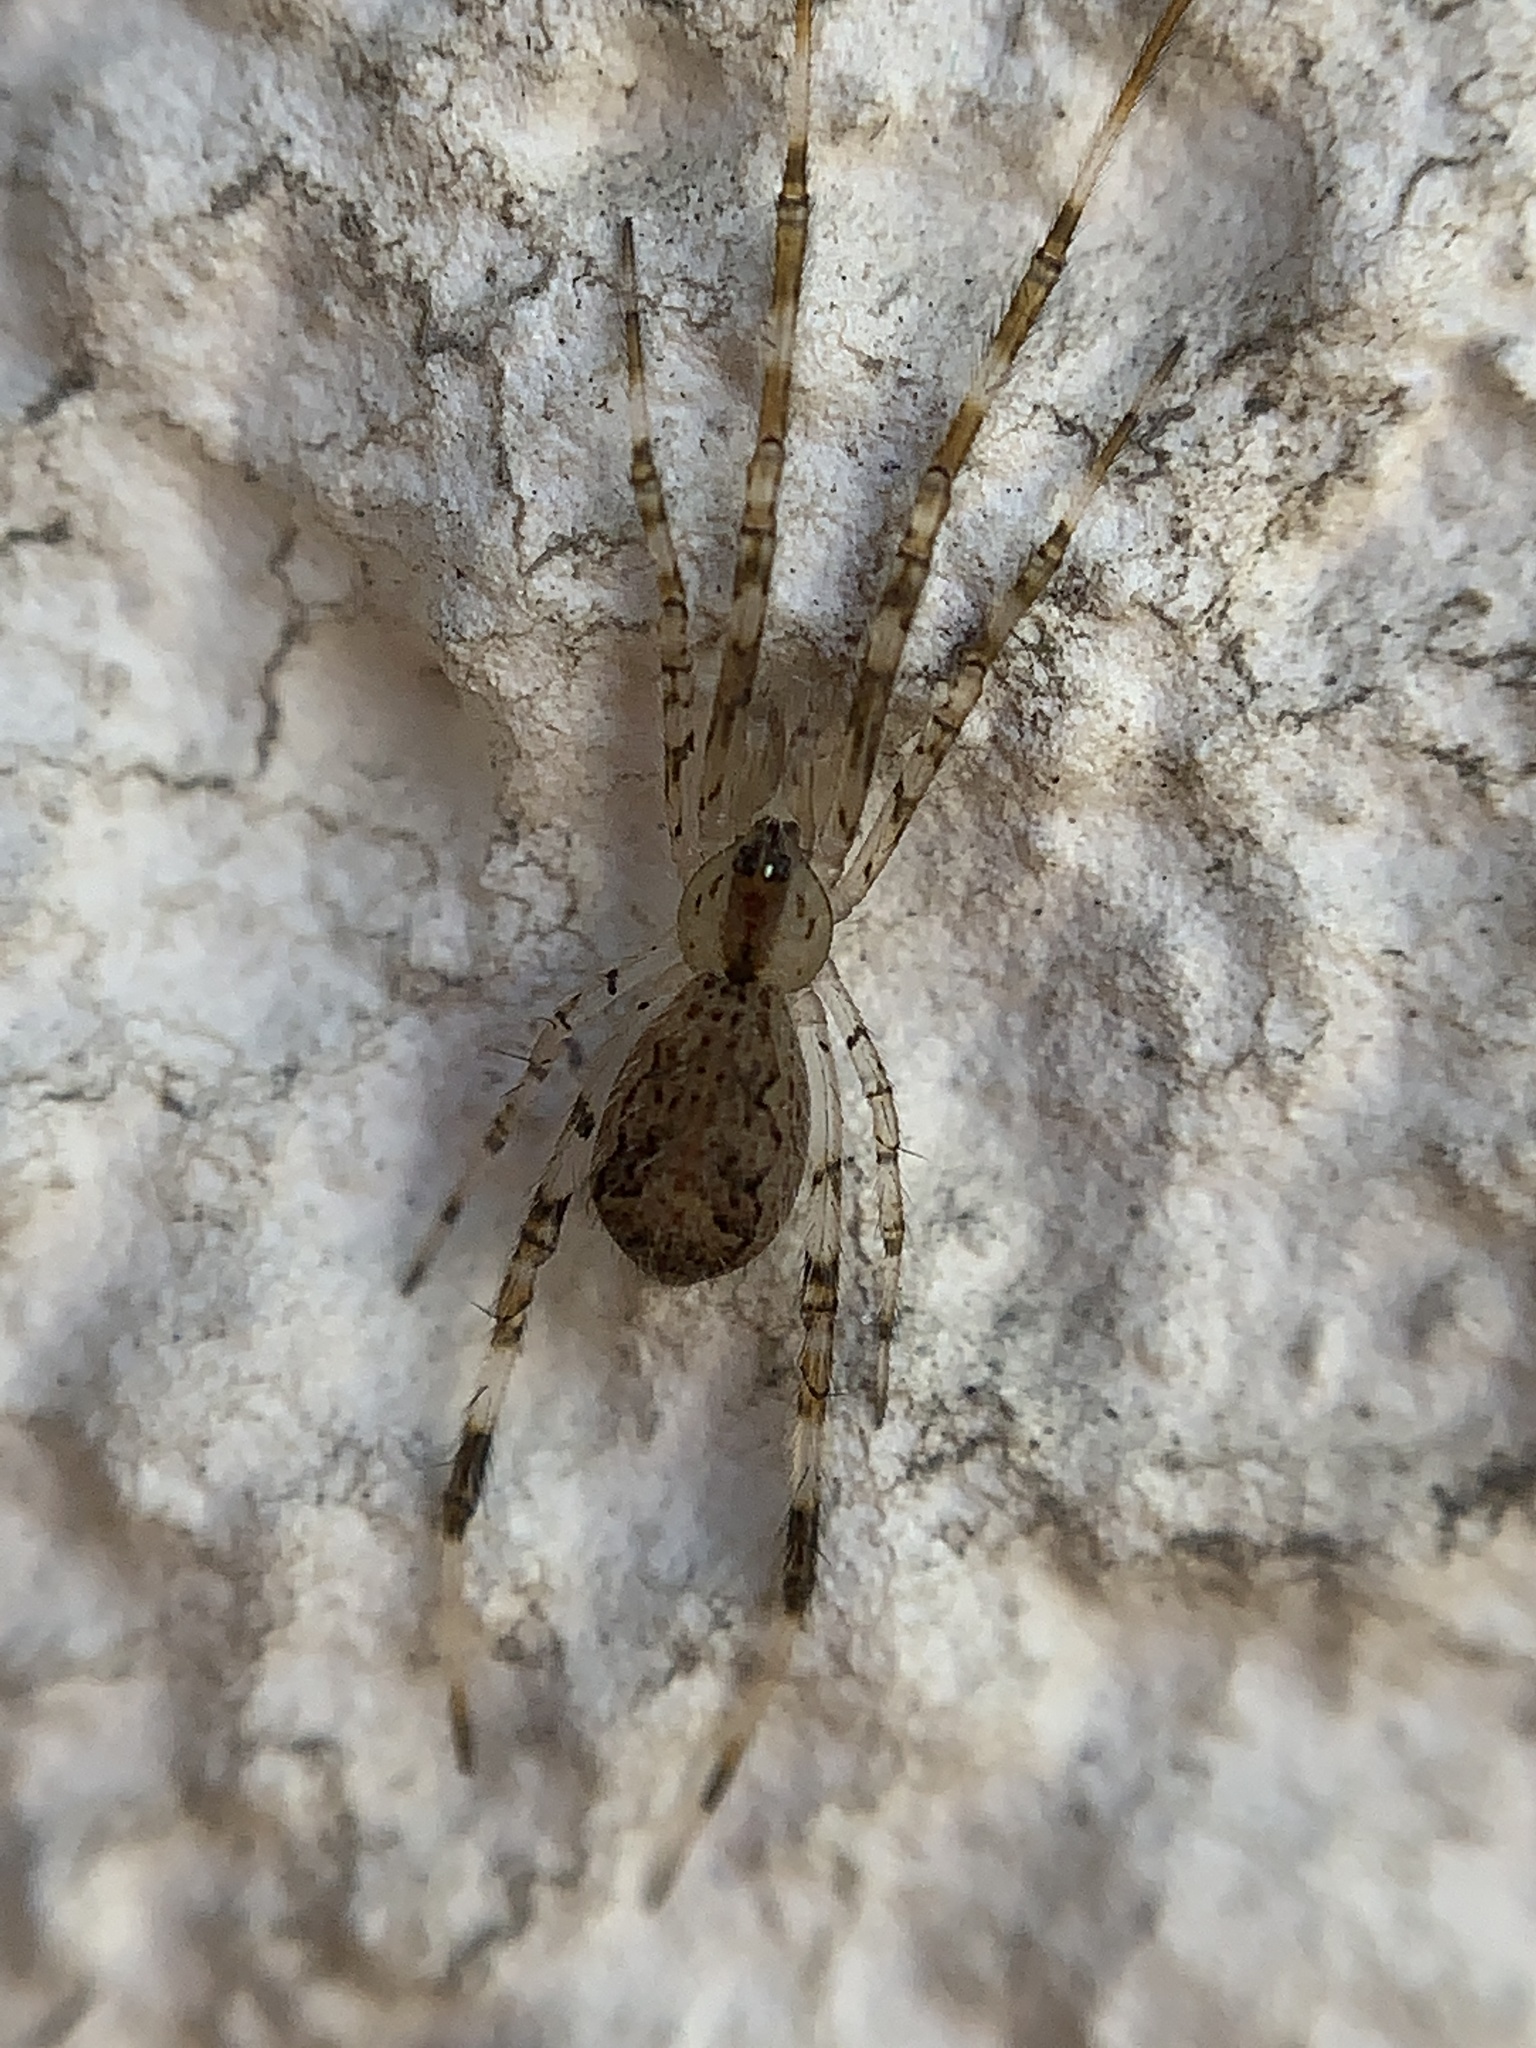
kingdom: Animalia
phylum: Arthropoda
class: Arachnida
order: Araneae
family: Theridiidae
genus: Episinus
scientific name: Episinus maculipes
